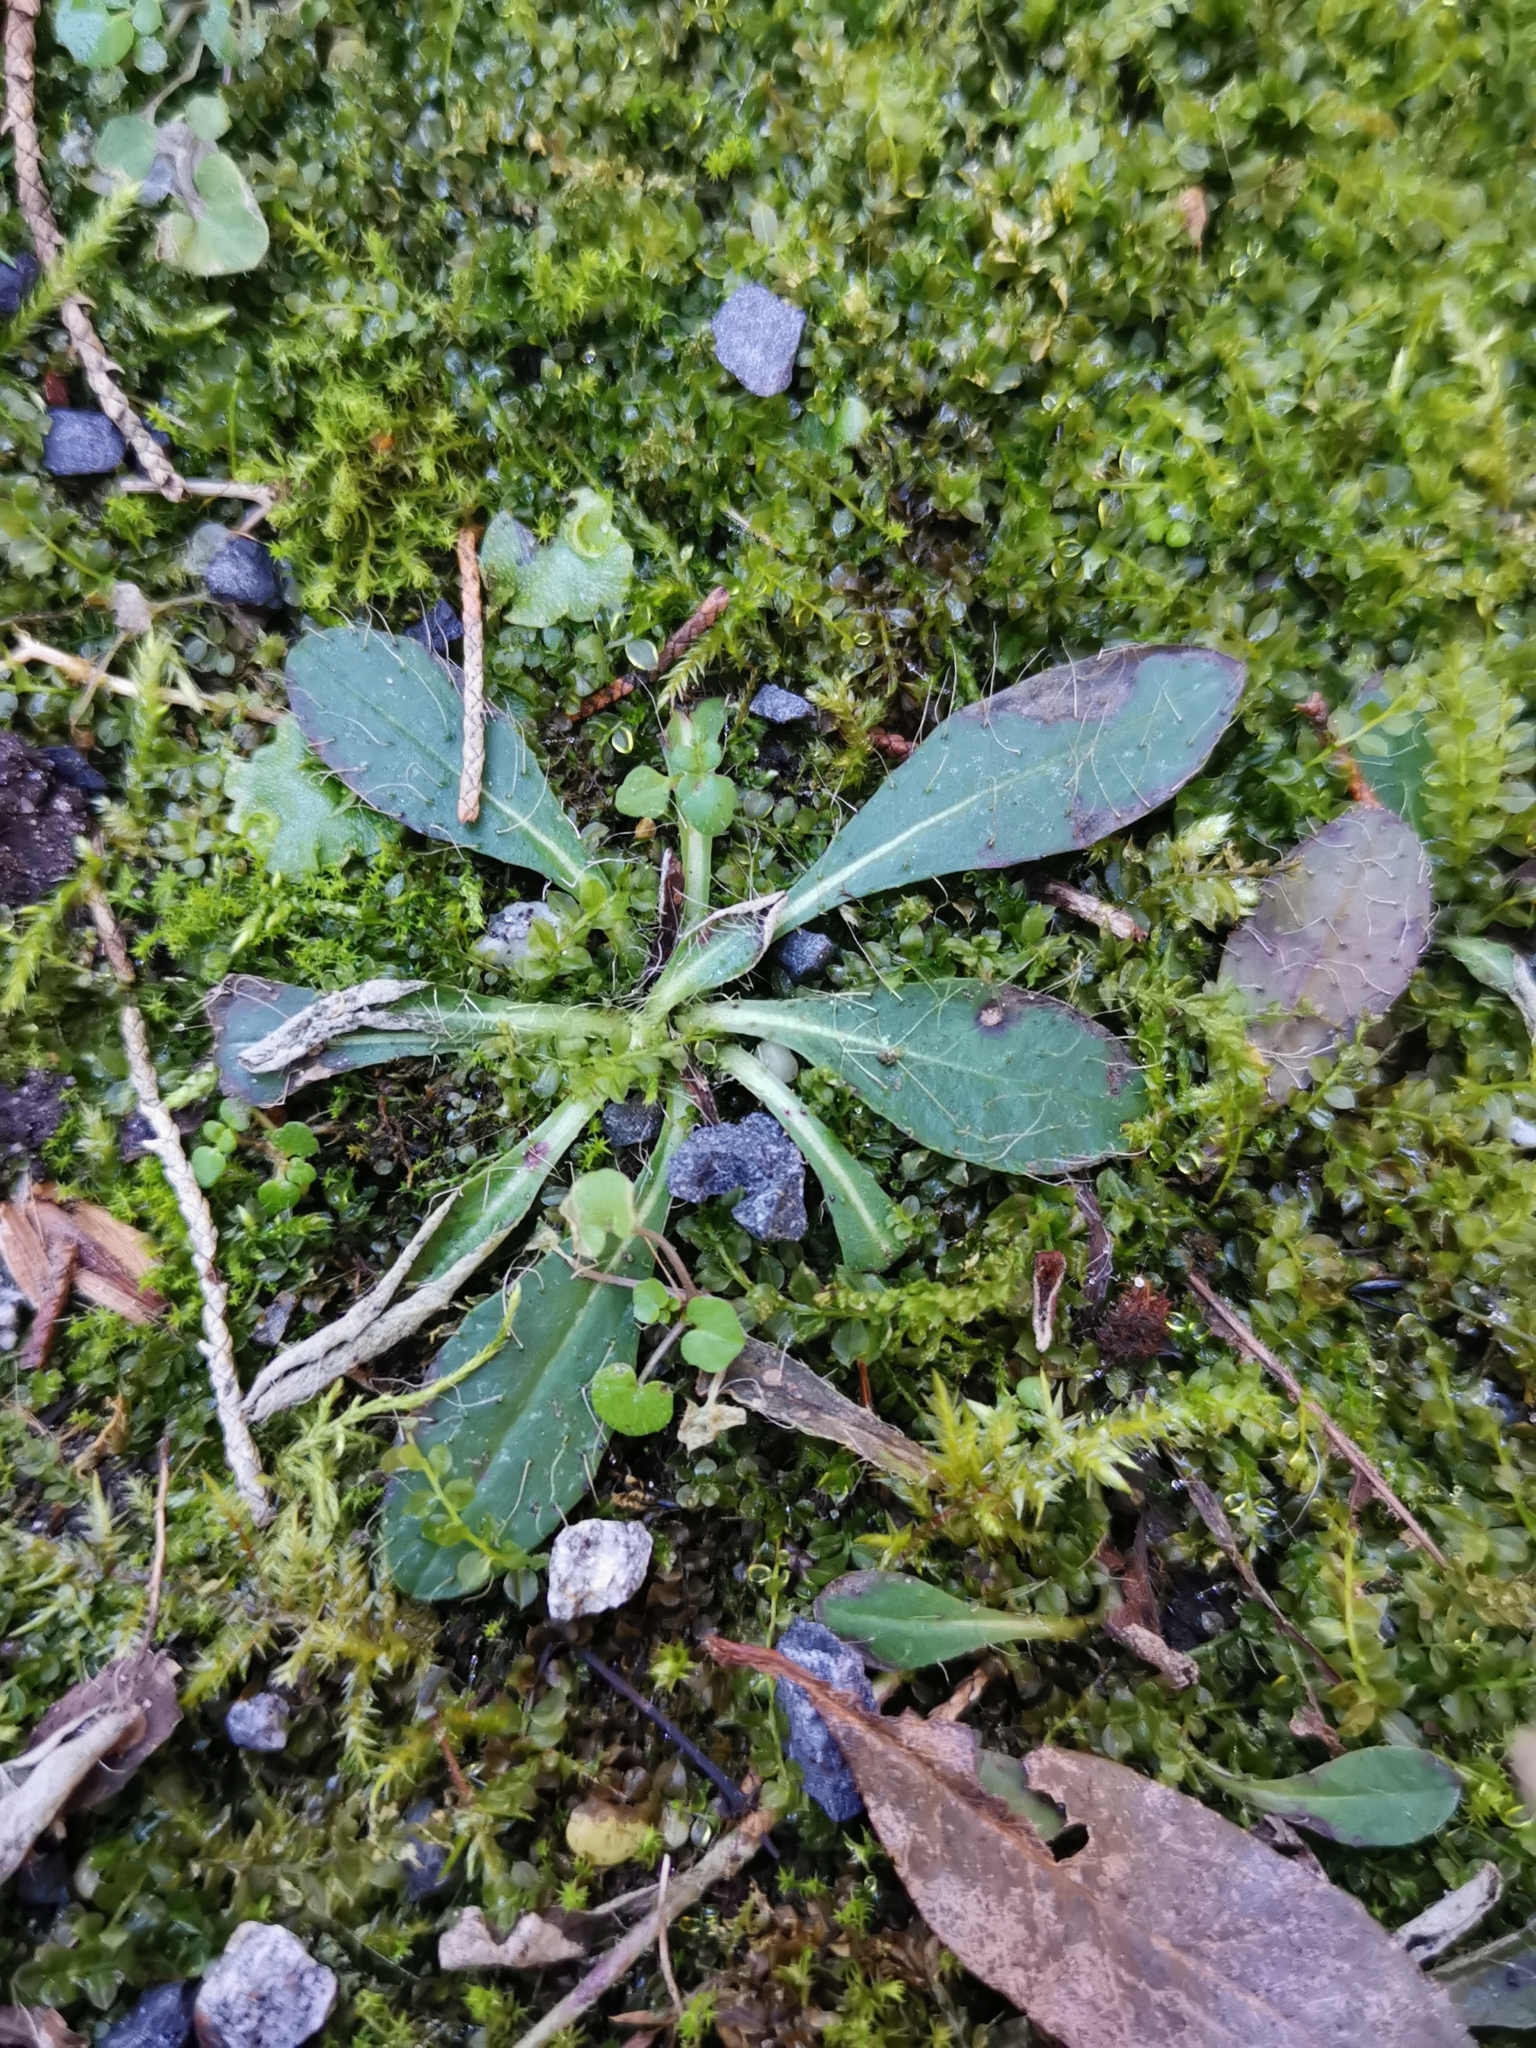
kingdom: Plantae
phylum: Tracheophyta
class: Magnoliopsida
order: Asterales
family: Asteraceae
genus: Pilosella
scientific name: Pilosella officinarum
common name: Mouse-ear hawkweed
